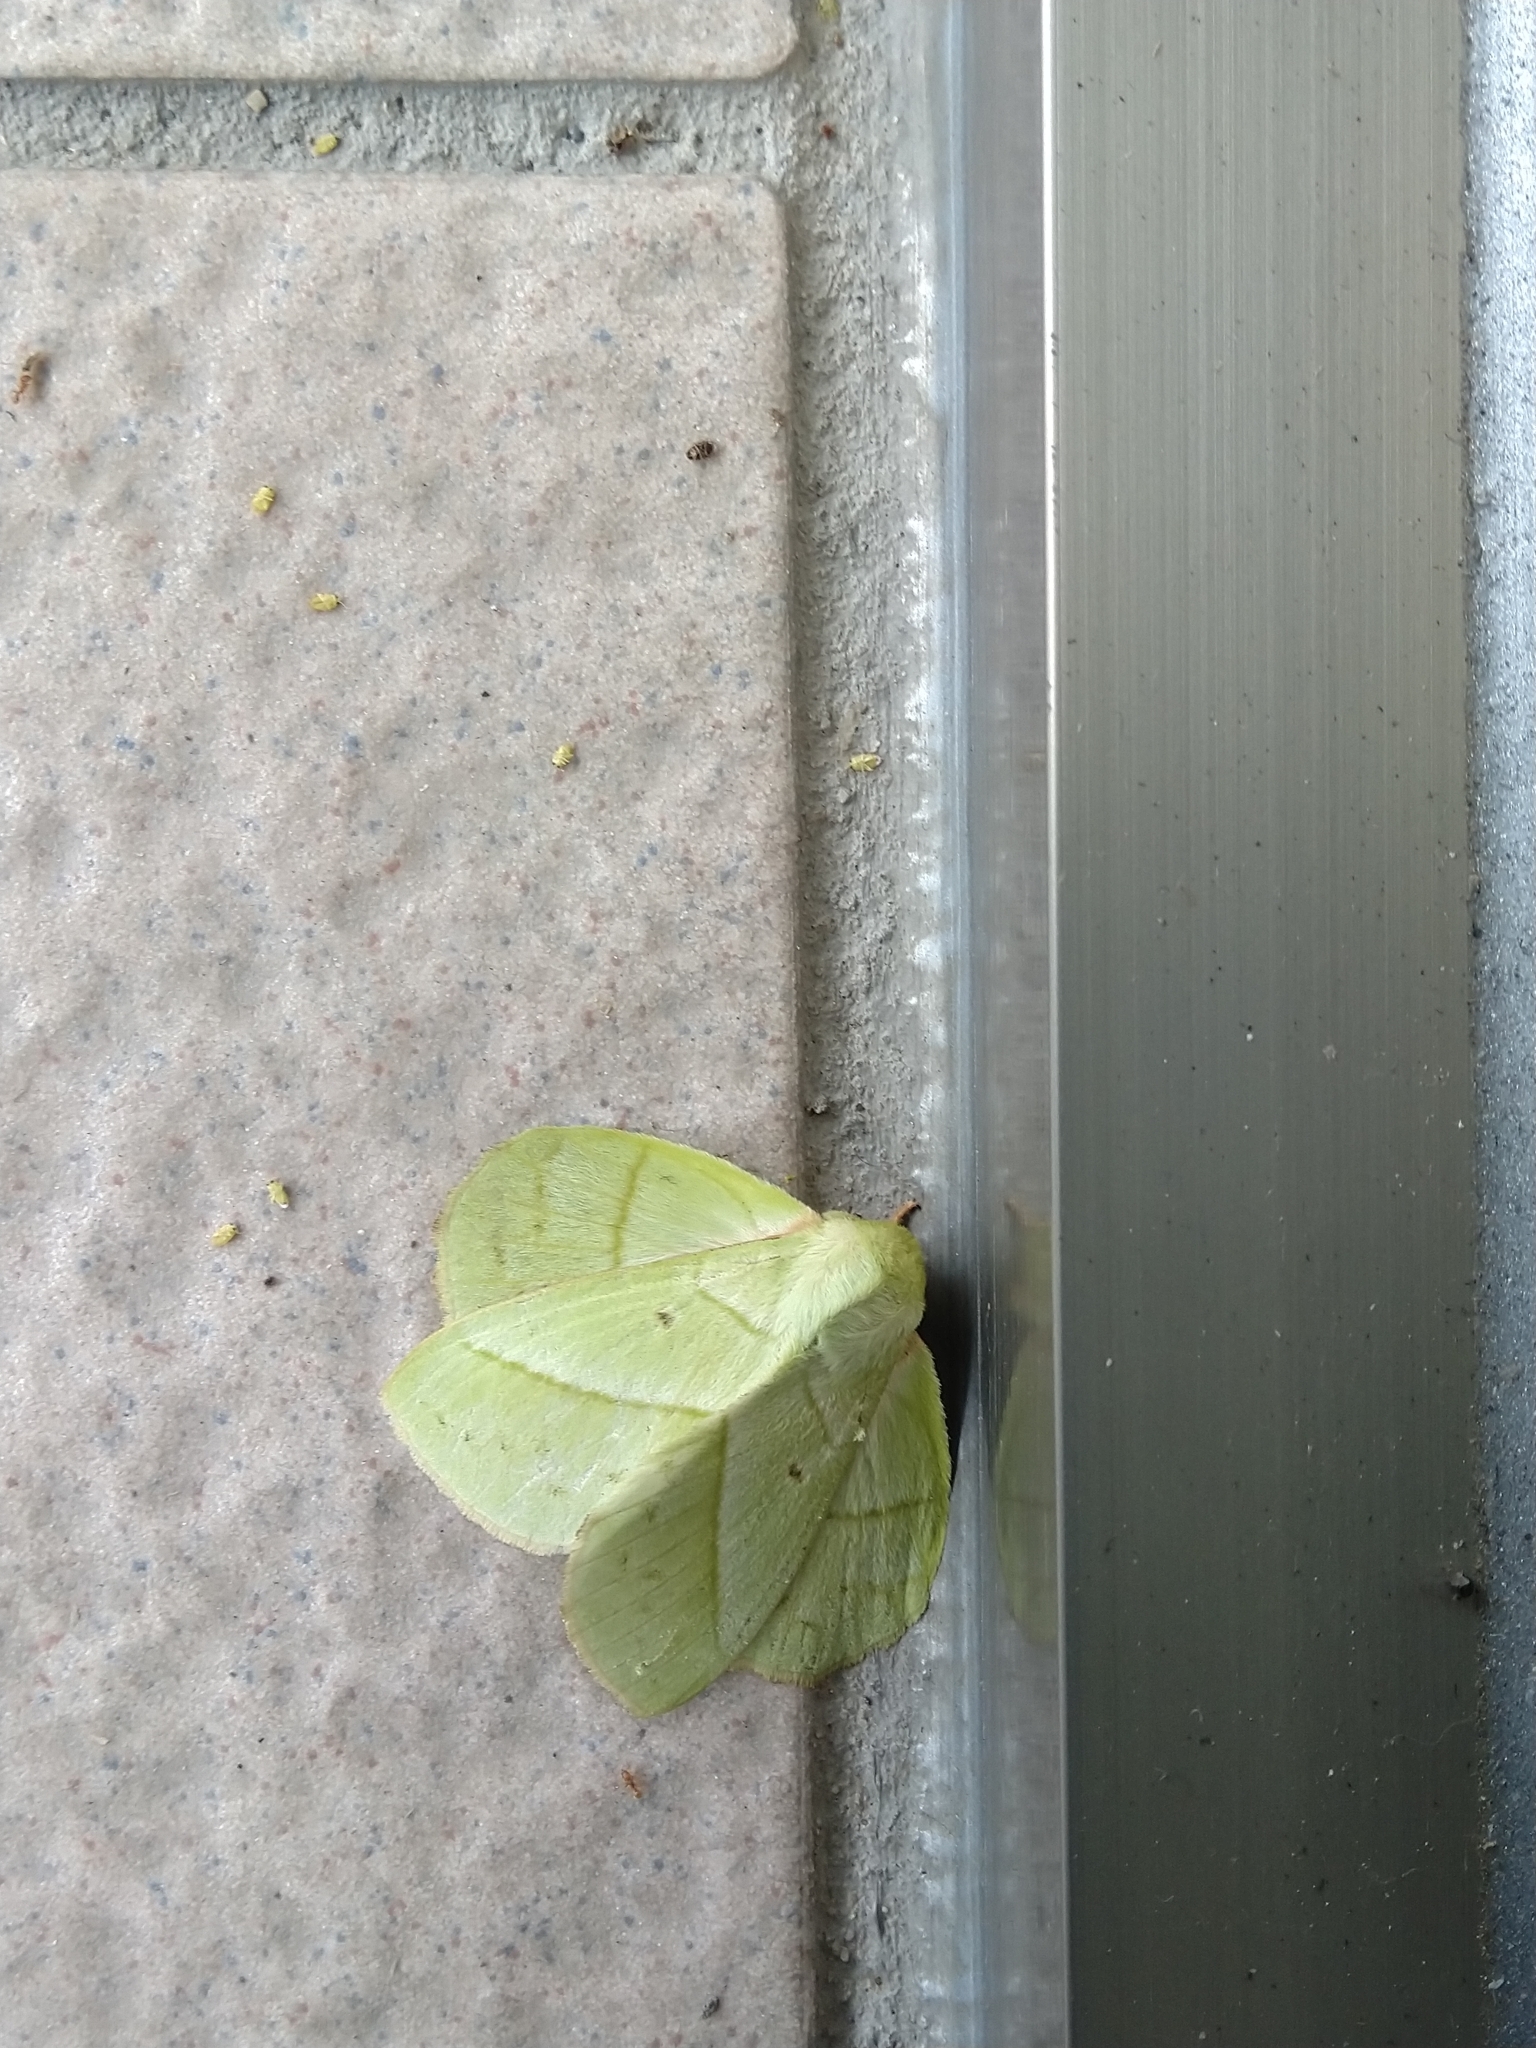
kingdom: Animalia
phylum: Arthropoda
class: Insecta
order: Lepidoptera
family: Lasiocampidae
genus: Trabala
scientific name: Trabala vishnou
